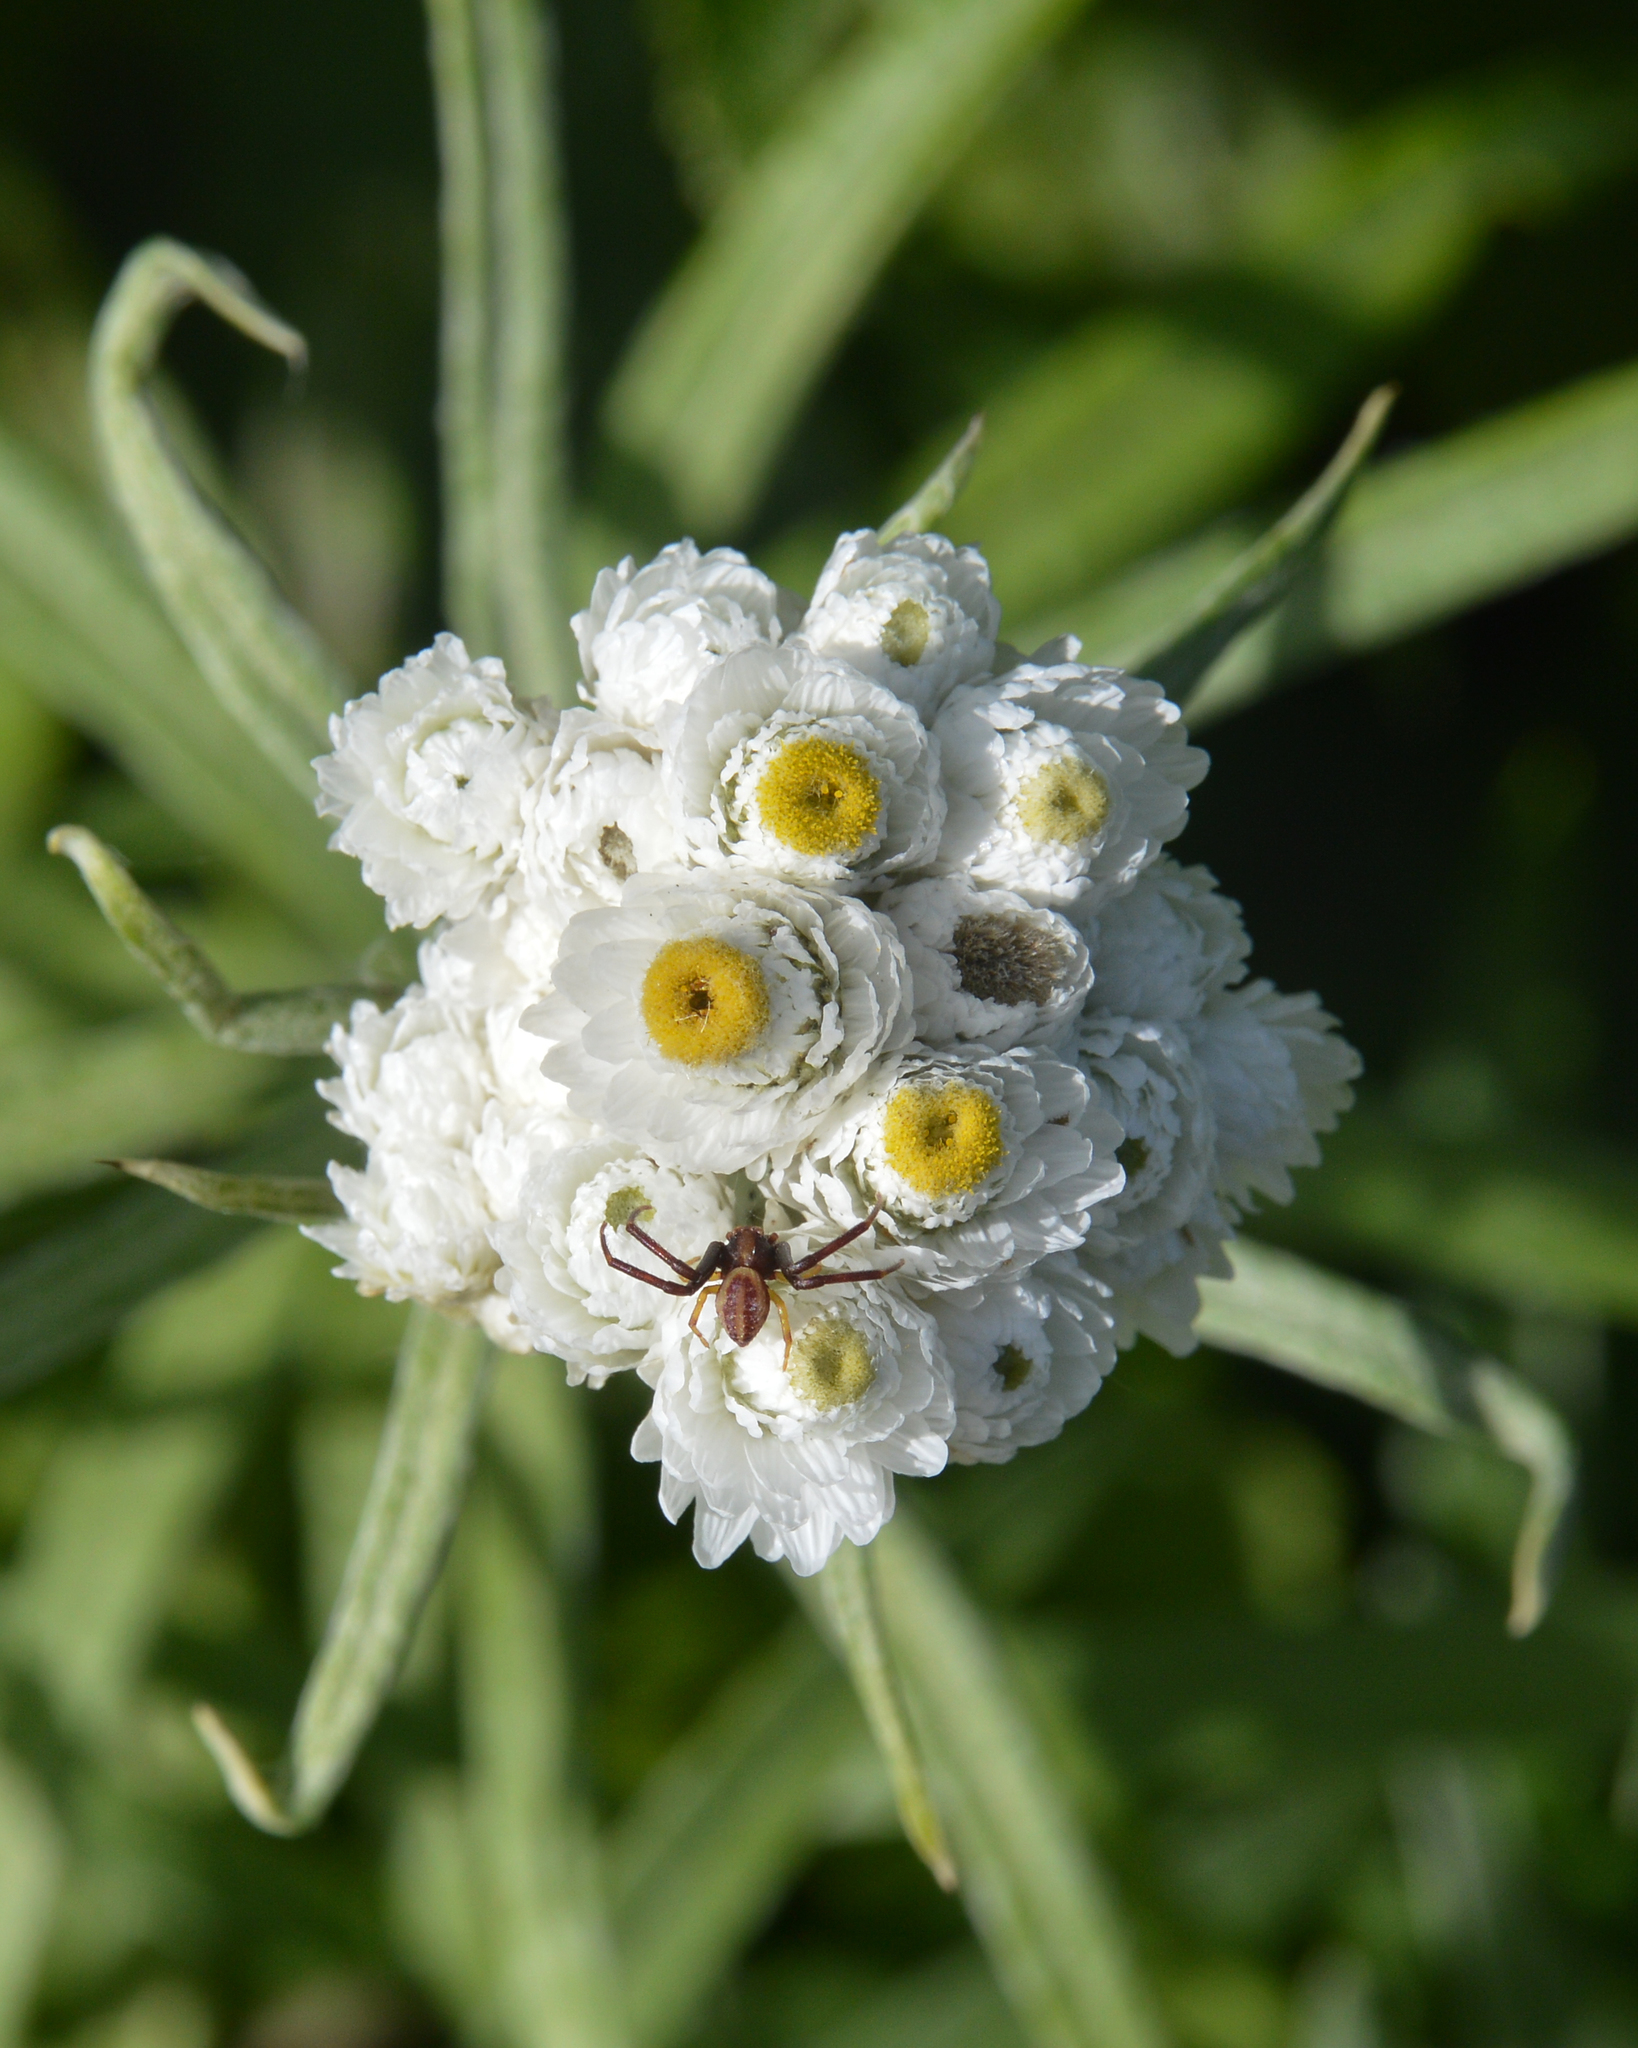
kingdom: Plantae
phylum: Tracheophyta
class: Magnoliopsida
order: Asterales
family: Asteraceae
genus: Anaphalis
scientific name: Anaphalis margaritacea
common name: Pearly everlasting
